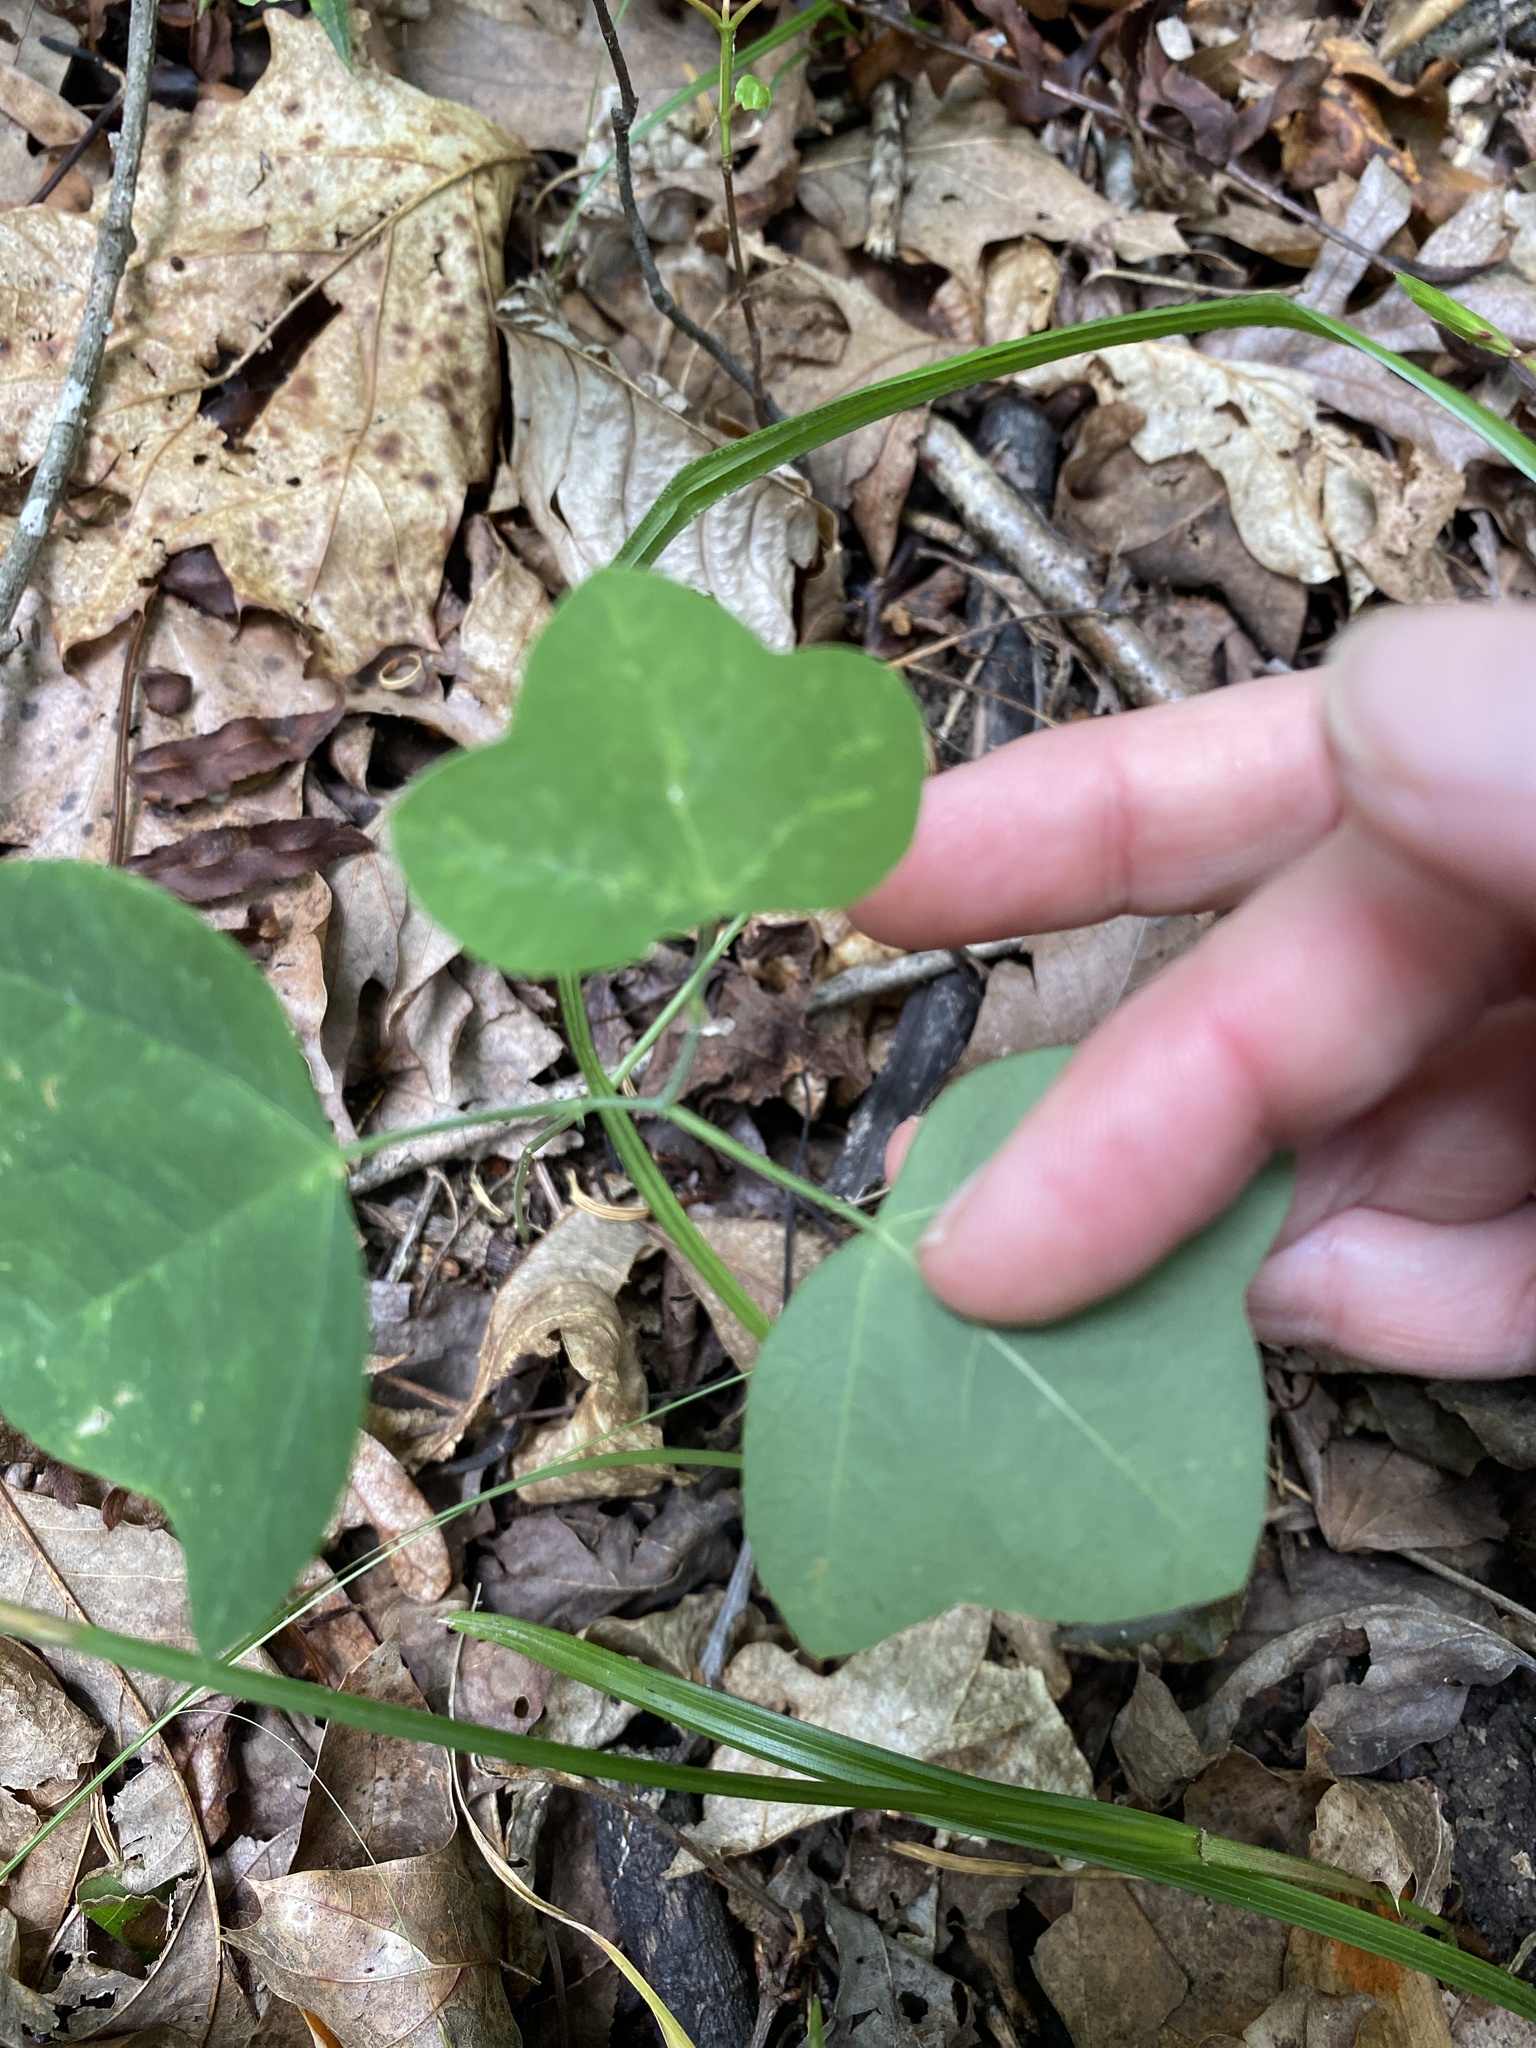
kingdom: Plantae
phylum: Tracheophyta
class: Magnoliopsida
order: Malpighiales
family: Passifloraceae
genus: Passiflora
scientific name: Passiflora lutea
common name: Yellow passionflower
